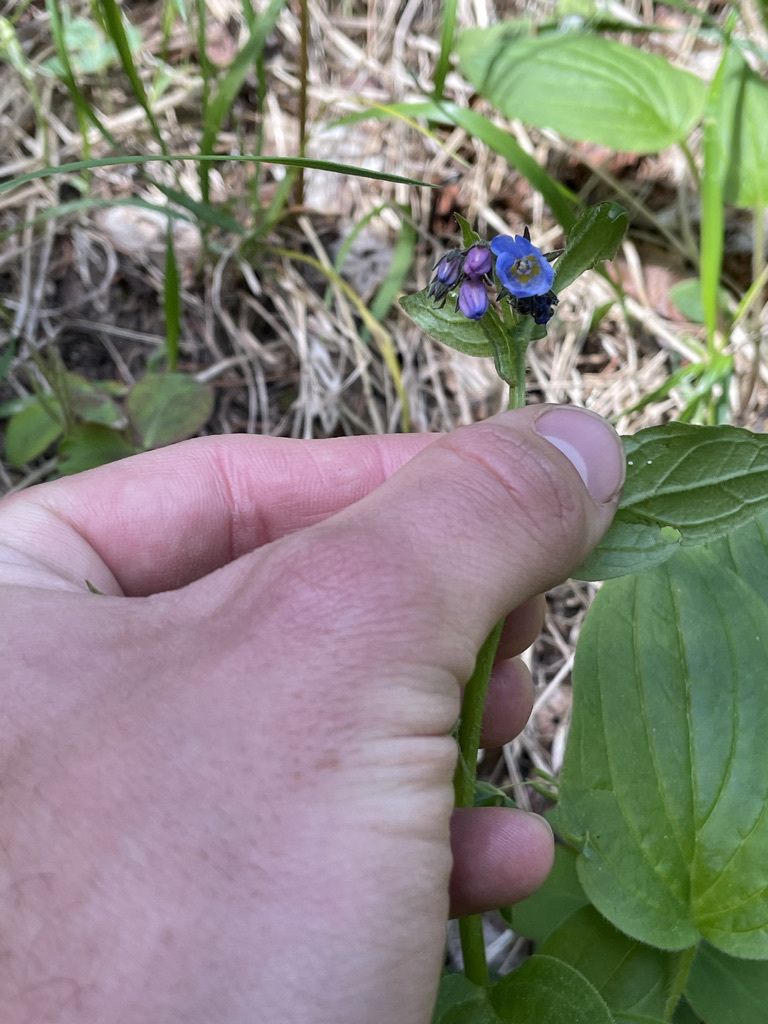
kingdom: Plantae
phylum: Tracheophyta
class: Magnoliopsida
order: Boraginales
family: Boraginaceae
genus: Mertensia
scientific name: Mertensia paniculata
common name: Panicled bluebells
